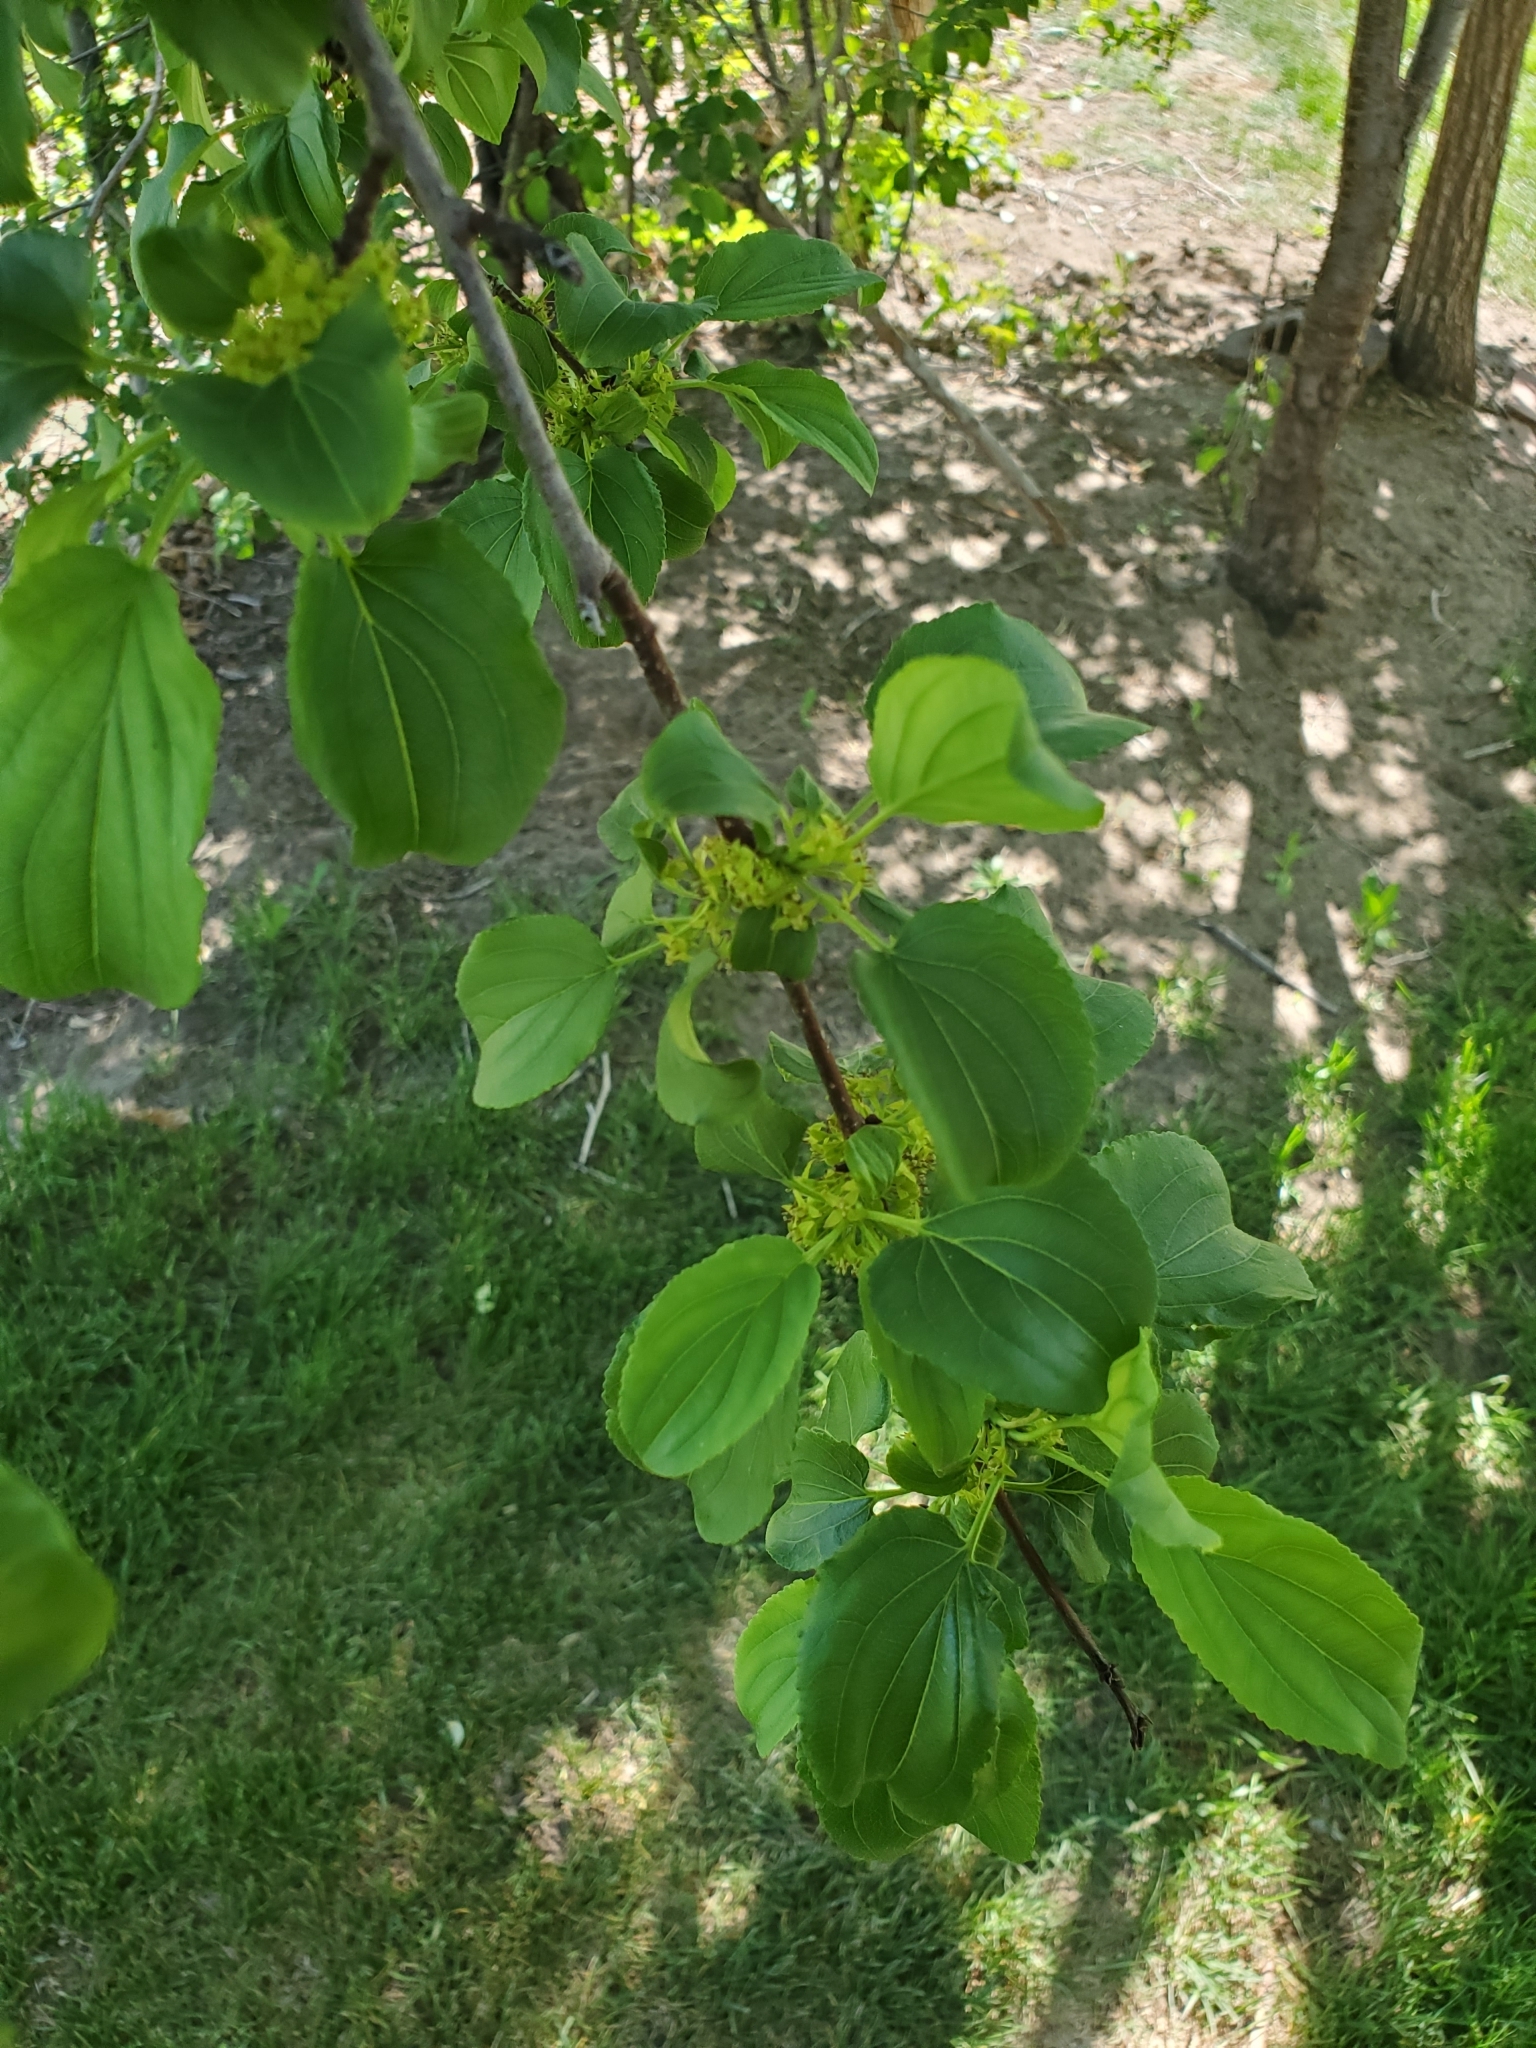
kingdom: Plantae
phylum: Tracheophyta
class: Magnoliopsida
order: Rosales
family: Rhamnaceae
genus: Rhamnus
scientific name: Rhamnus cathartica
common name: Common buckthorn
